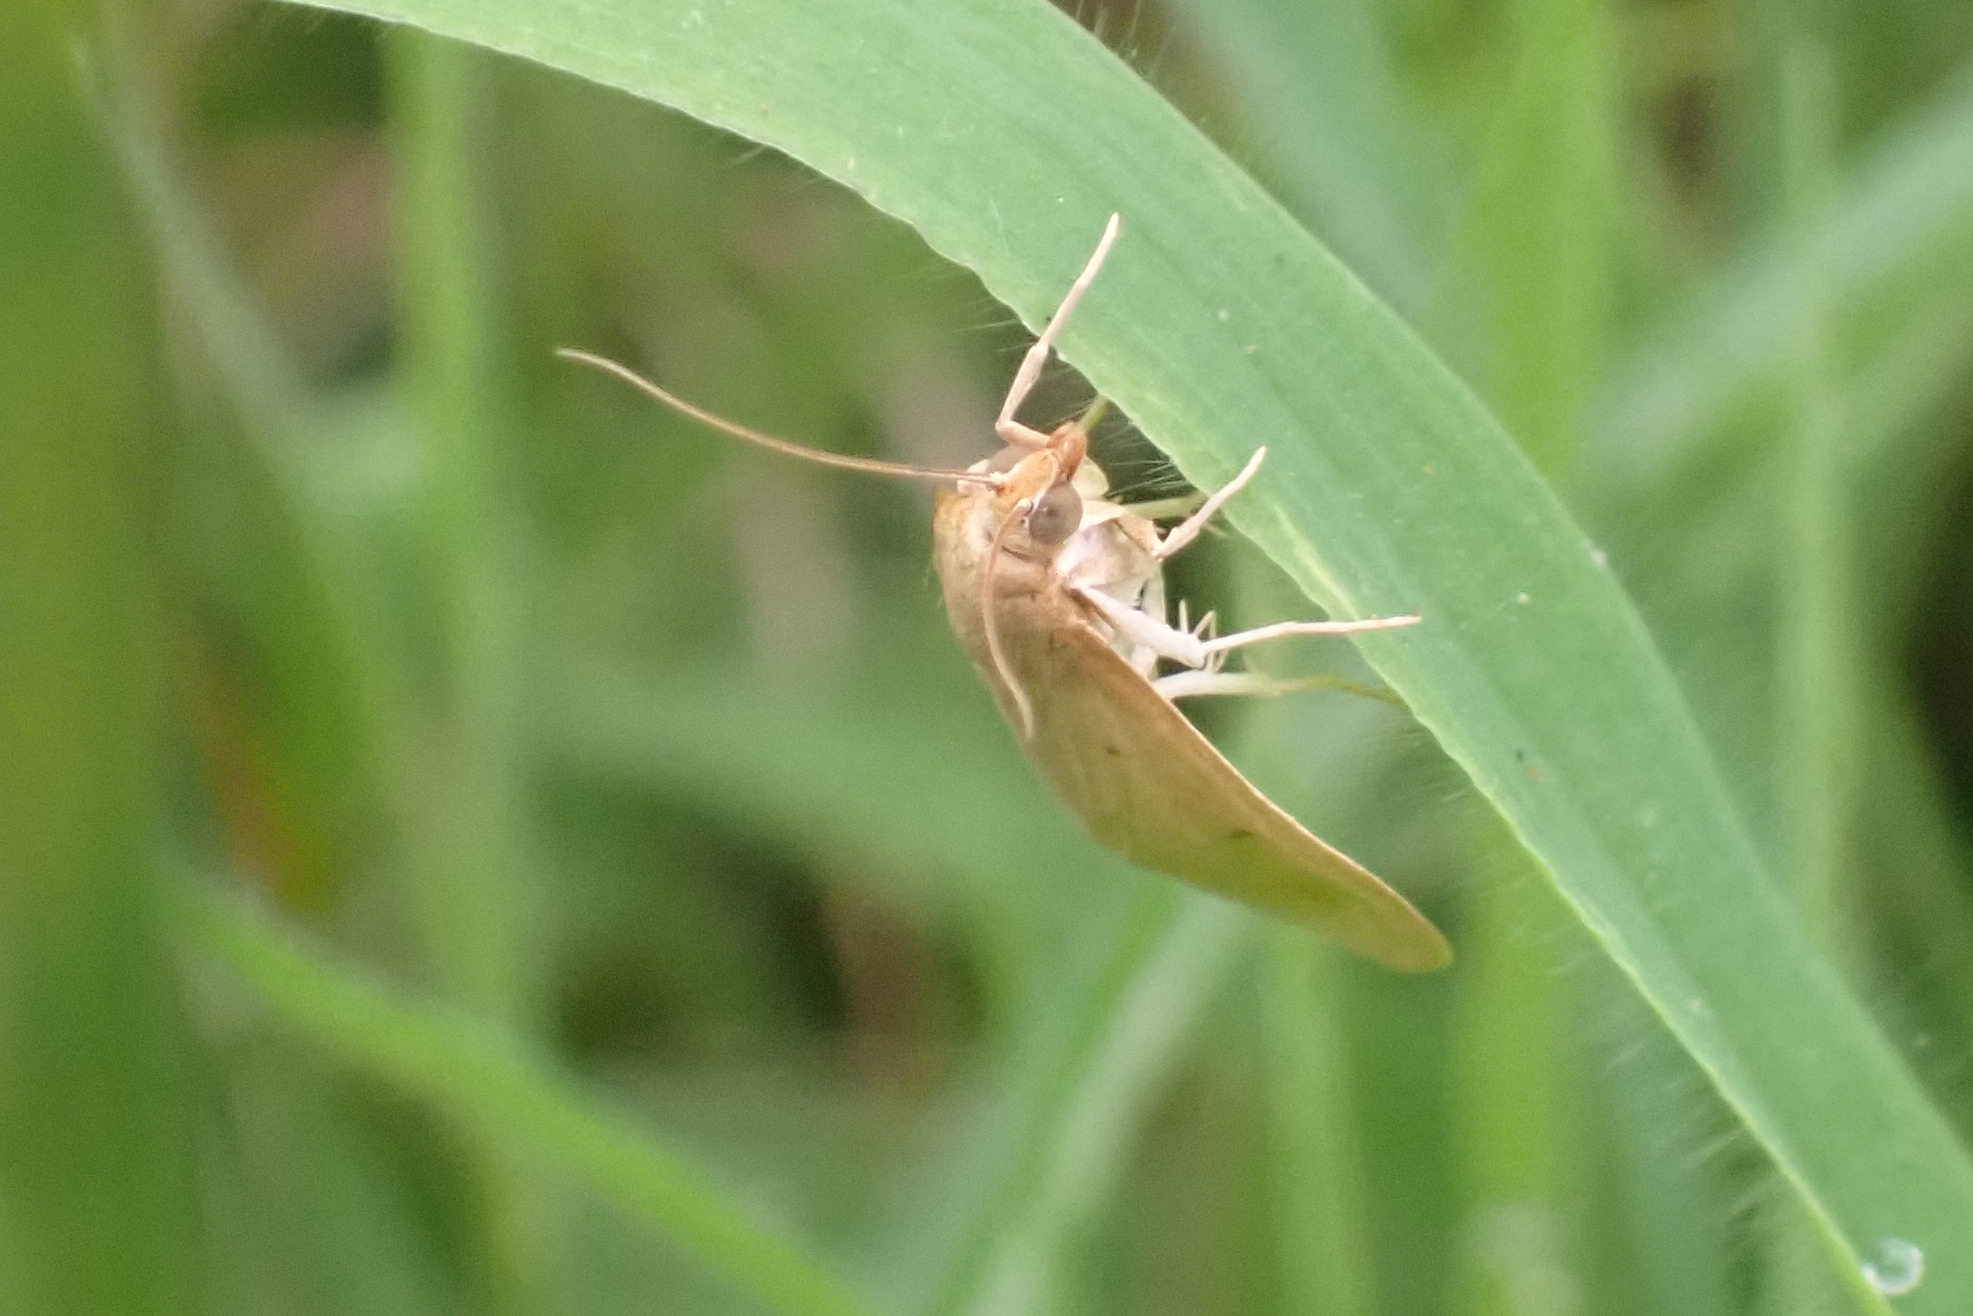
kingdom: Animalia
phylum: Arthropoda
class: Insecta
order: Lepidoptera
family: Crambidae
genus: Achyra
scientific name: Achyra nudalis
